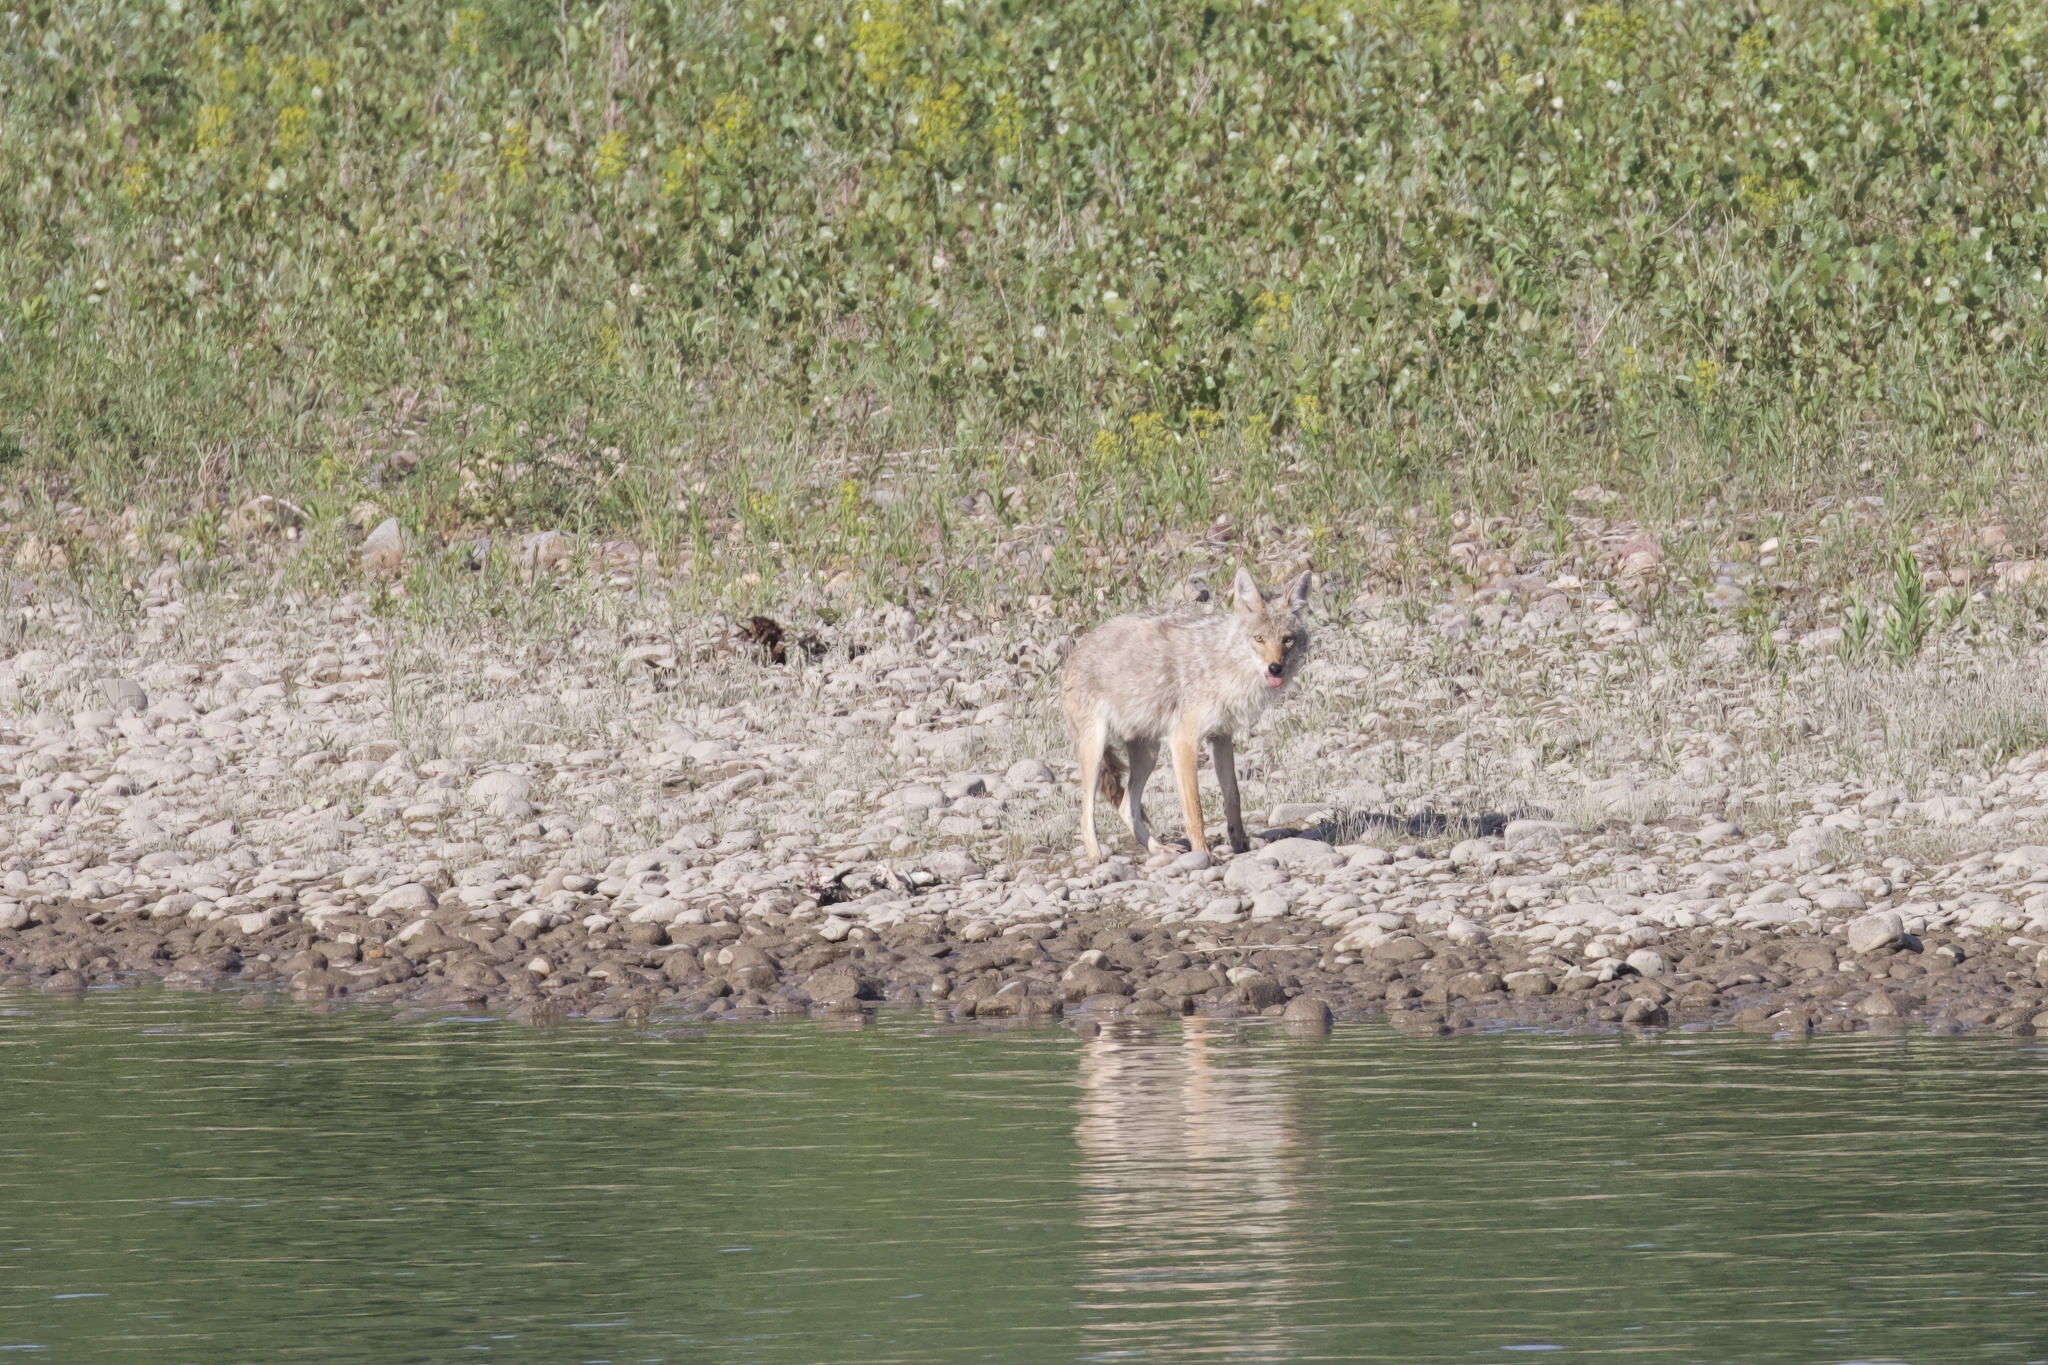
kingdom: Animalia
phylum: Chordata
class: Mammalia
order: Carnivora
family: Canidae
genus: Canis
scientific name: Canis latrans
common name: Coyote
